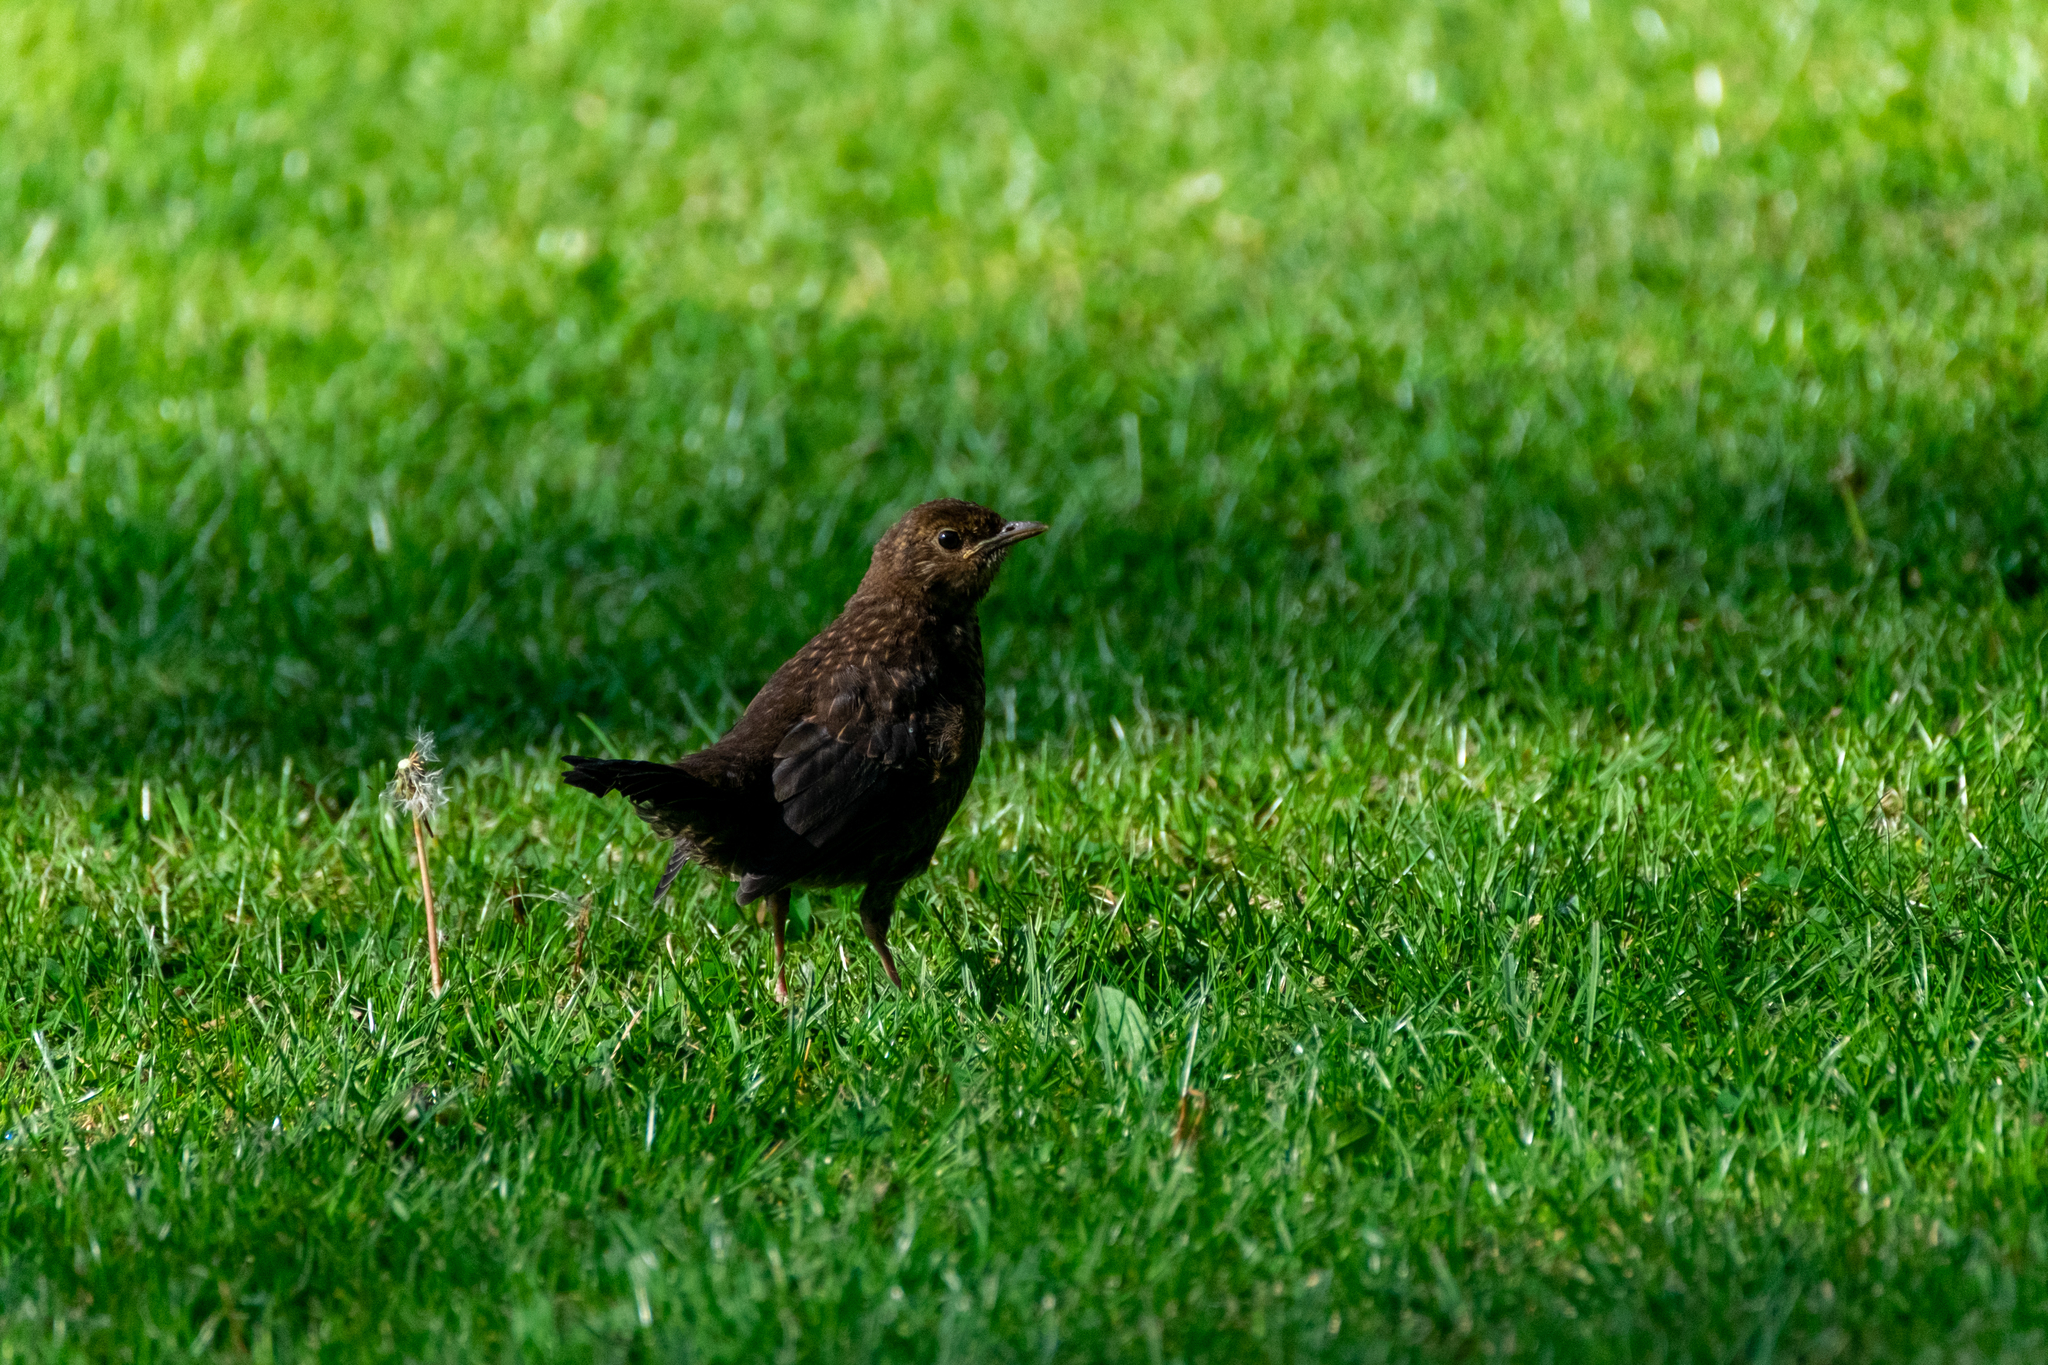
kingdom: Animalia
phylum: Chordata
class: Aves
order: Passeriformes
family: Turdidae
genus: Turdus
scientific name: Turdus merula
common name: Common blackbird
